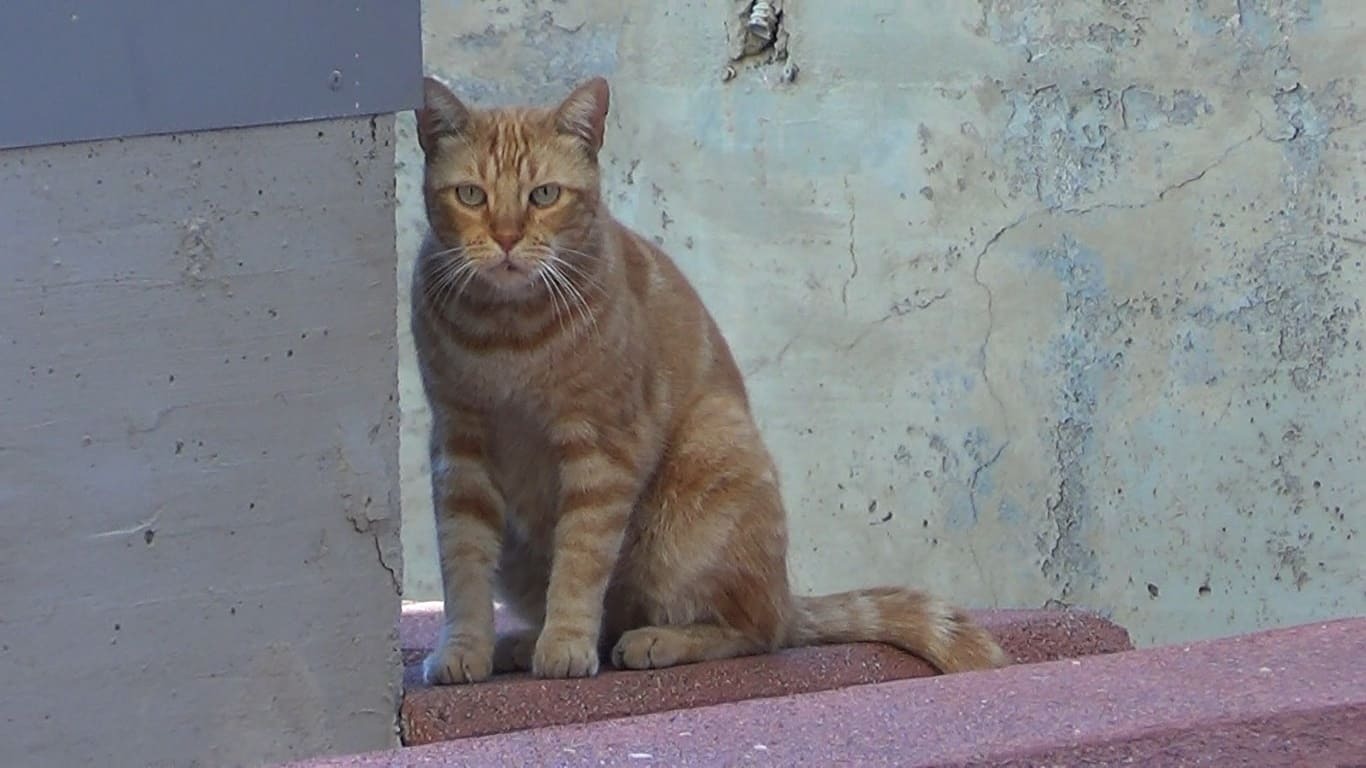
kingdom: Animalia
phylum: Chordata
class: Mammalia
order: Carnivora
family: Felidae
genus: Felis
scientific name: Felis catus
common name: Domestic cat
